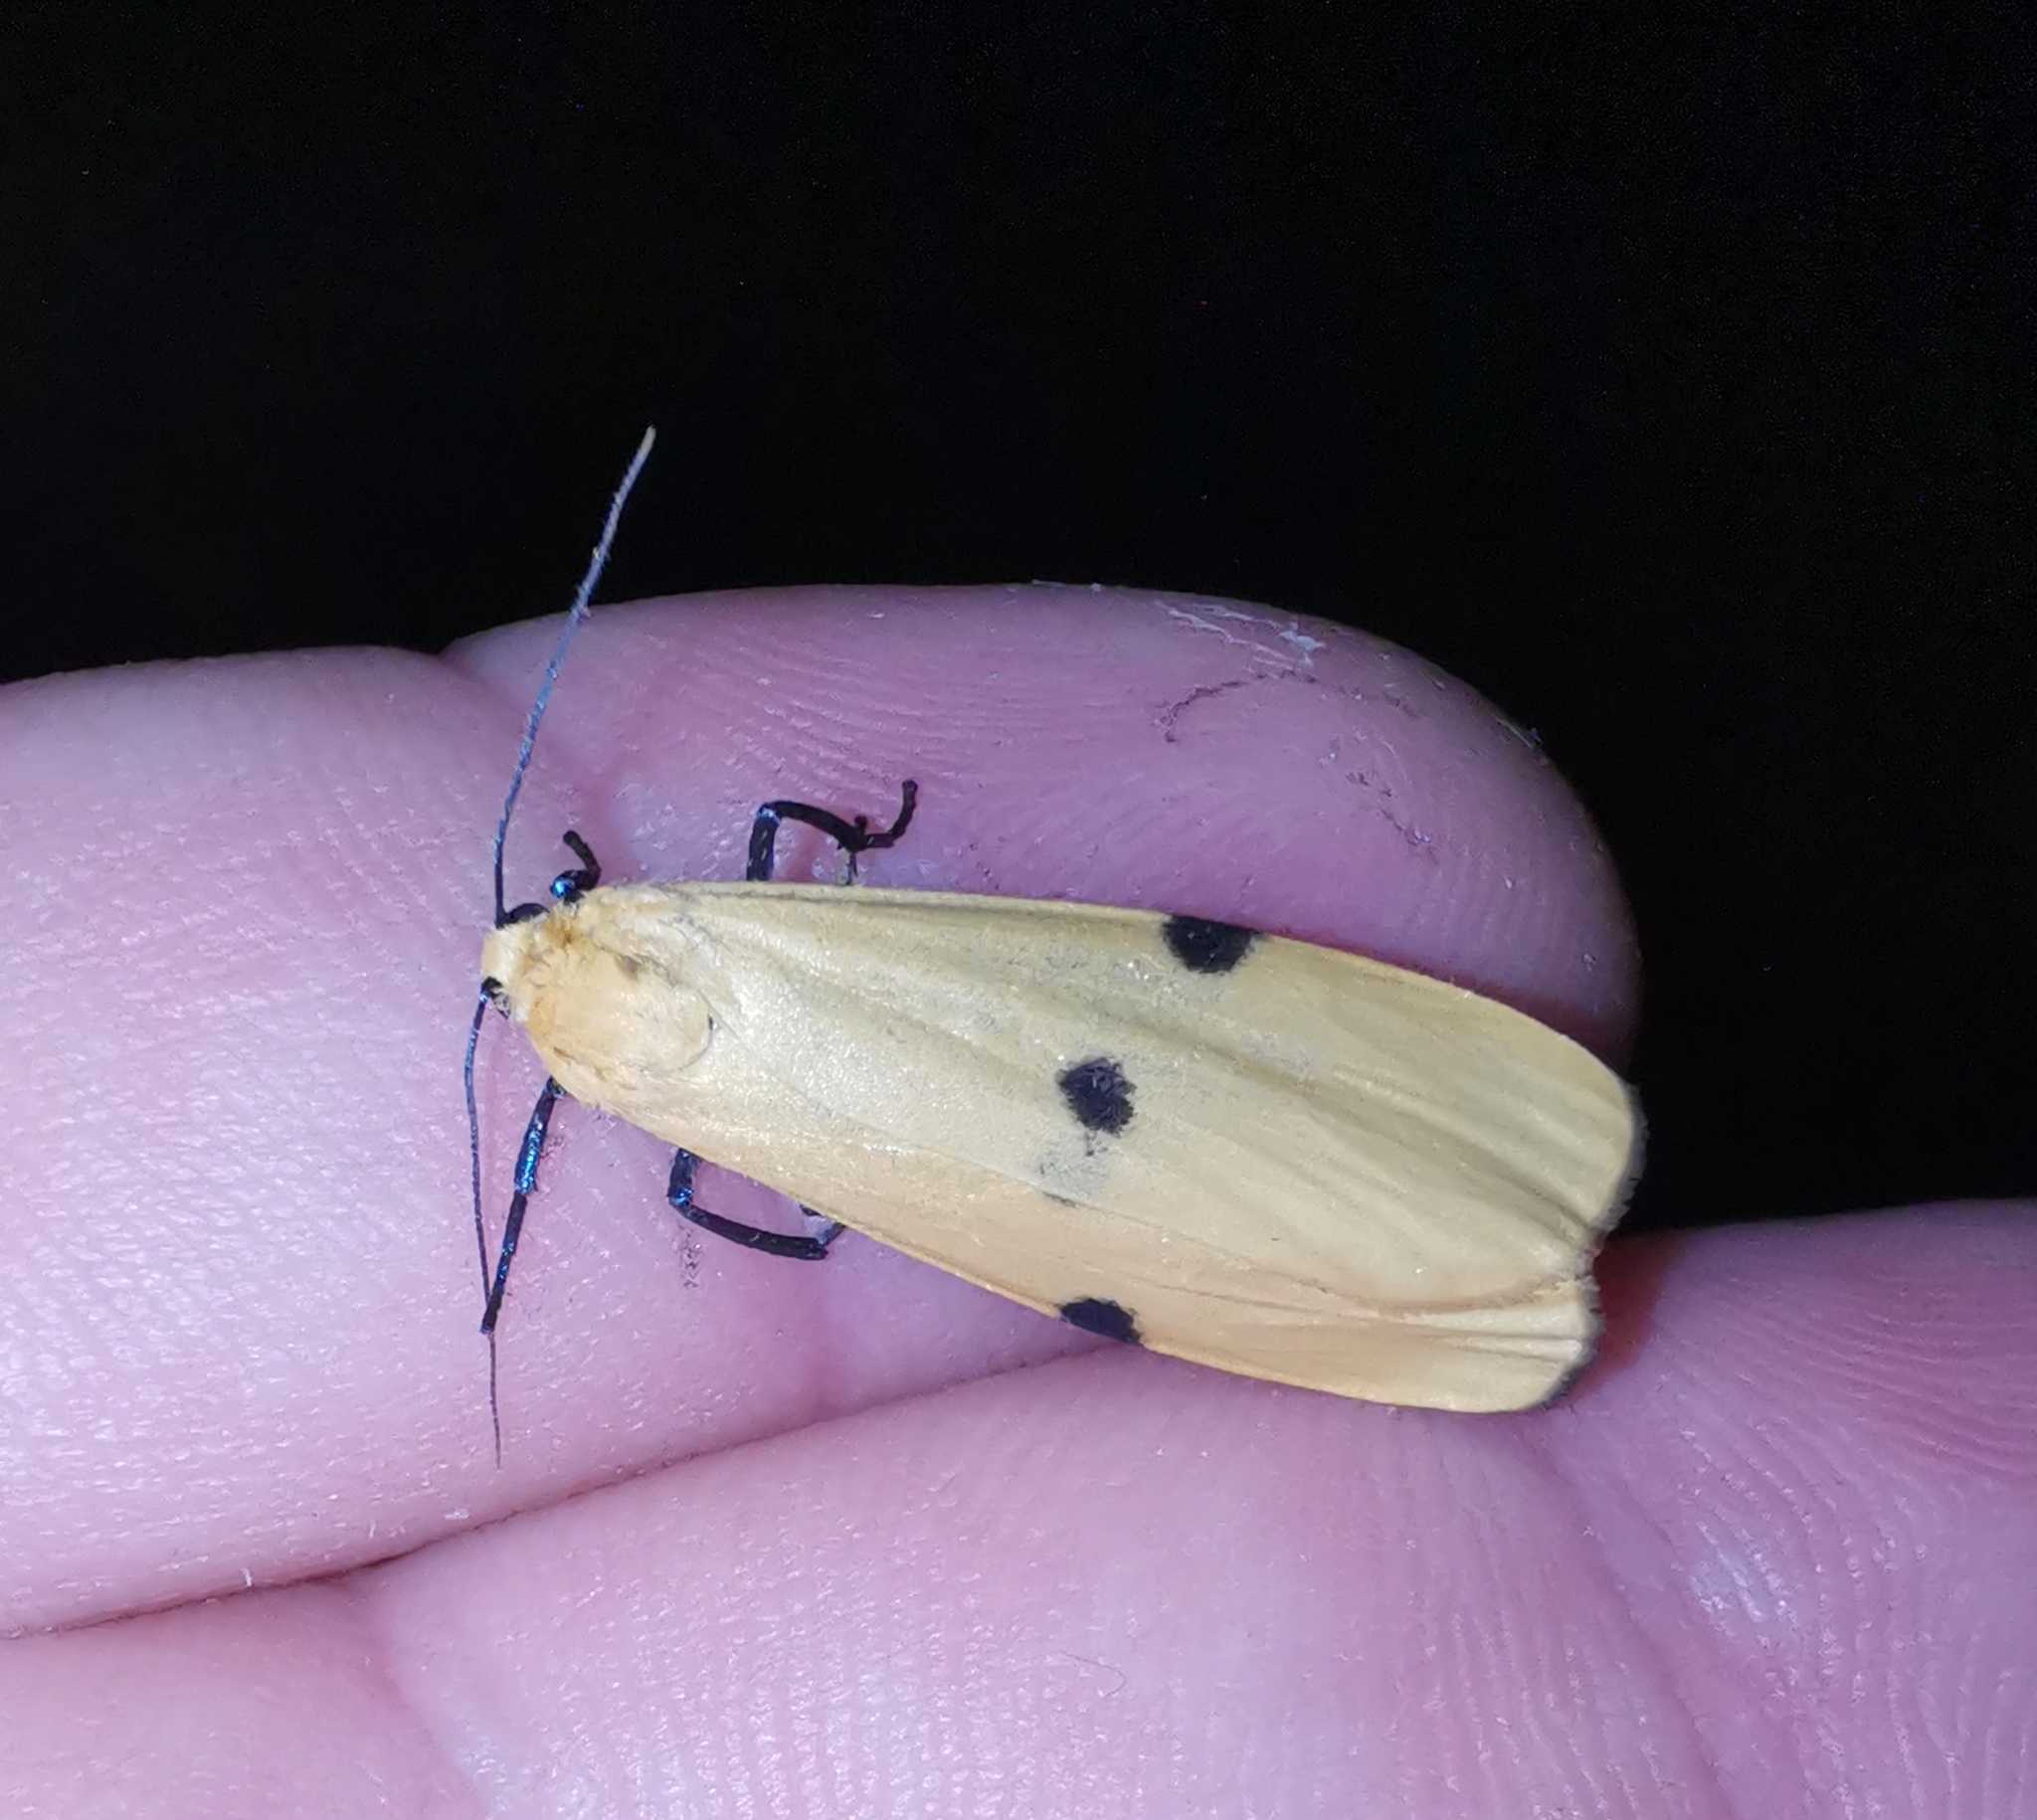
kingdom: Animalia
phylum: Arthropoda
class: Insecta
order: Lepidoptera
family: Erebidae
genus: Lithosia
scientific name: Lithosia quadra
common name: Four-spotted footman
